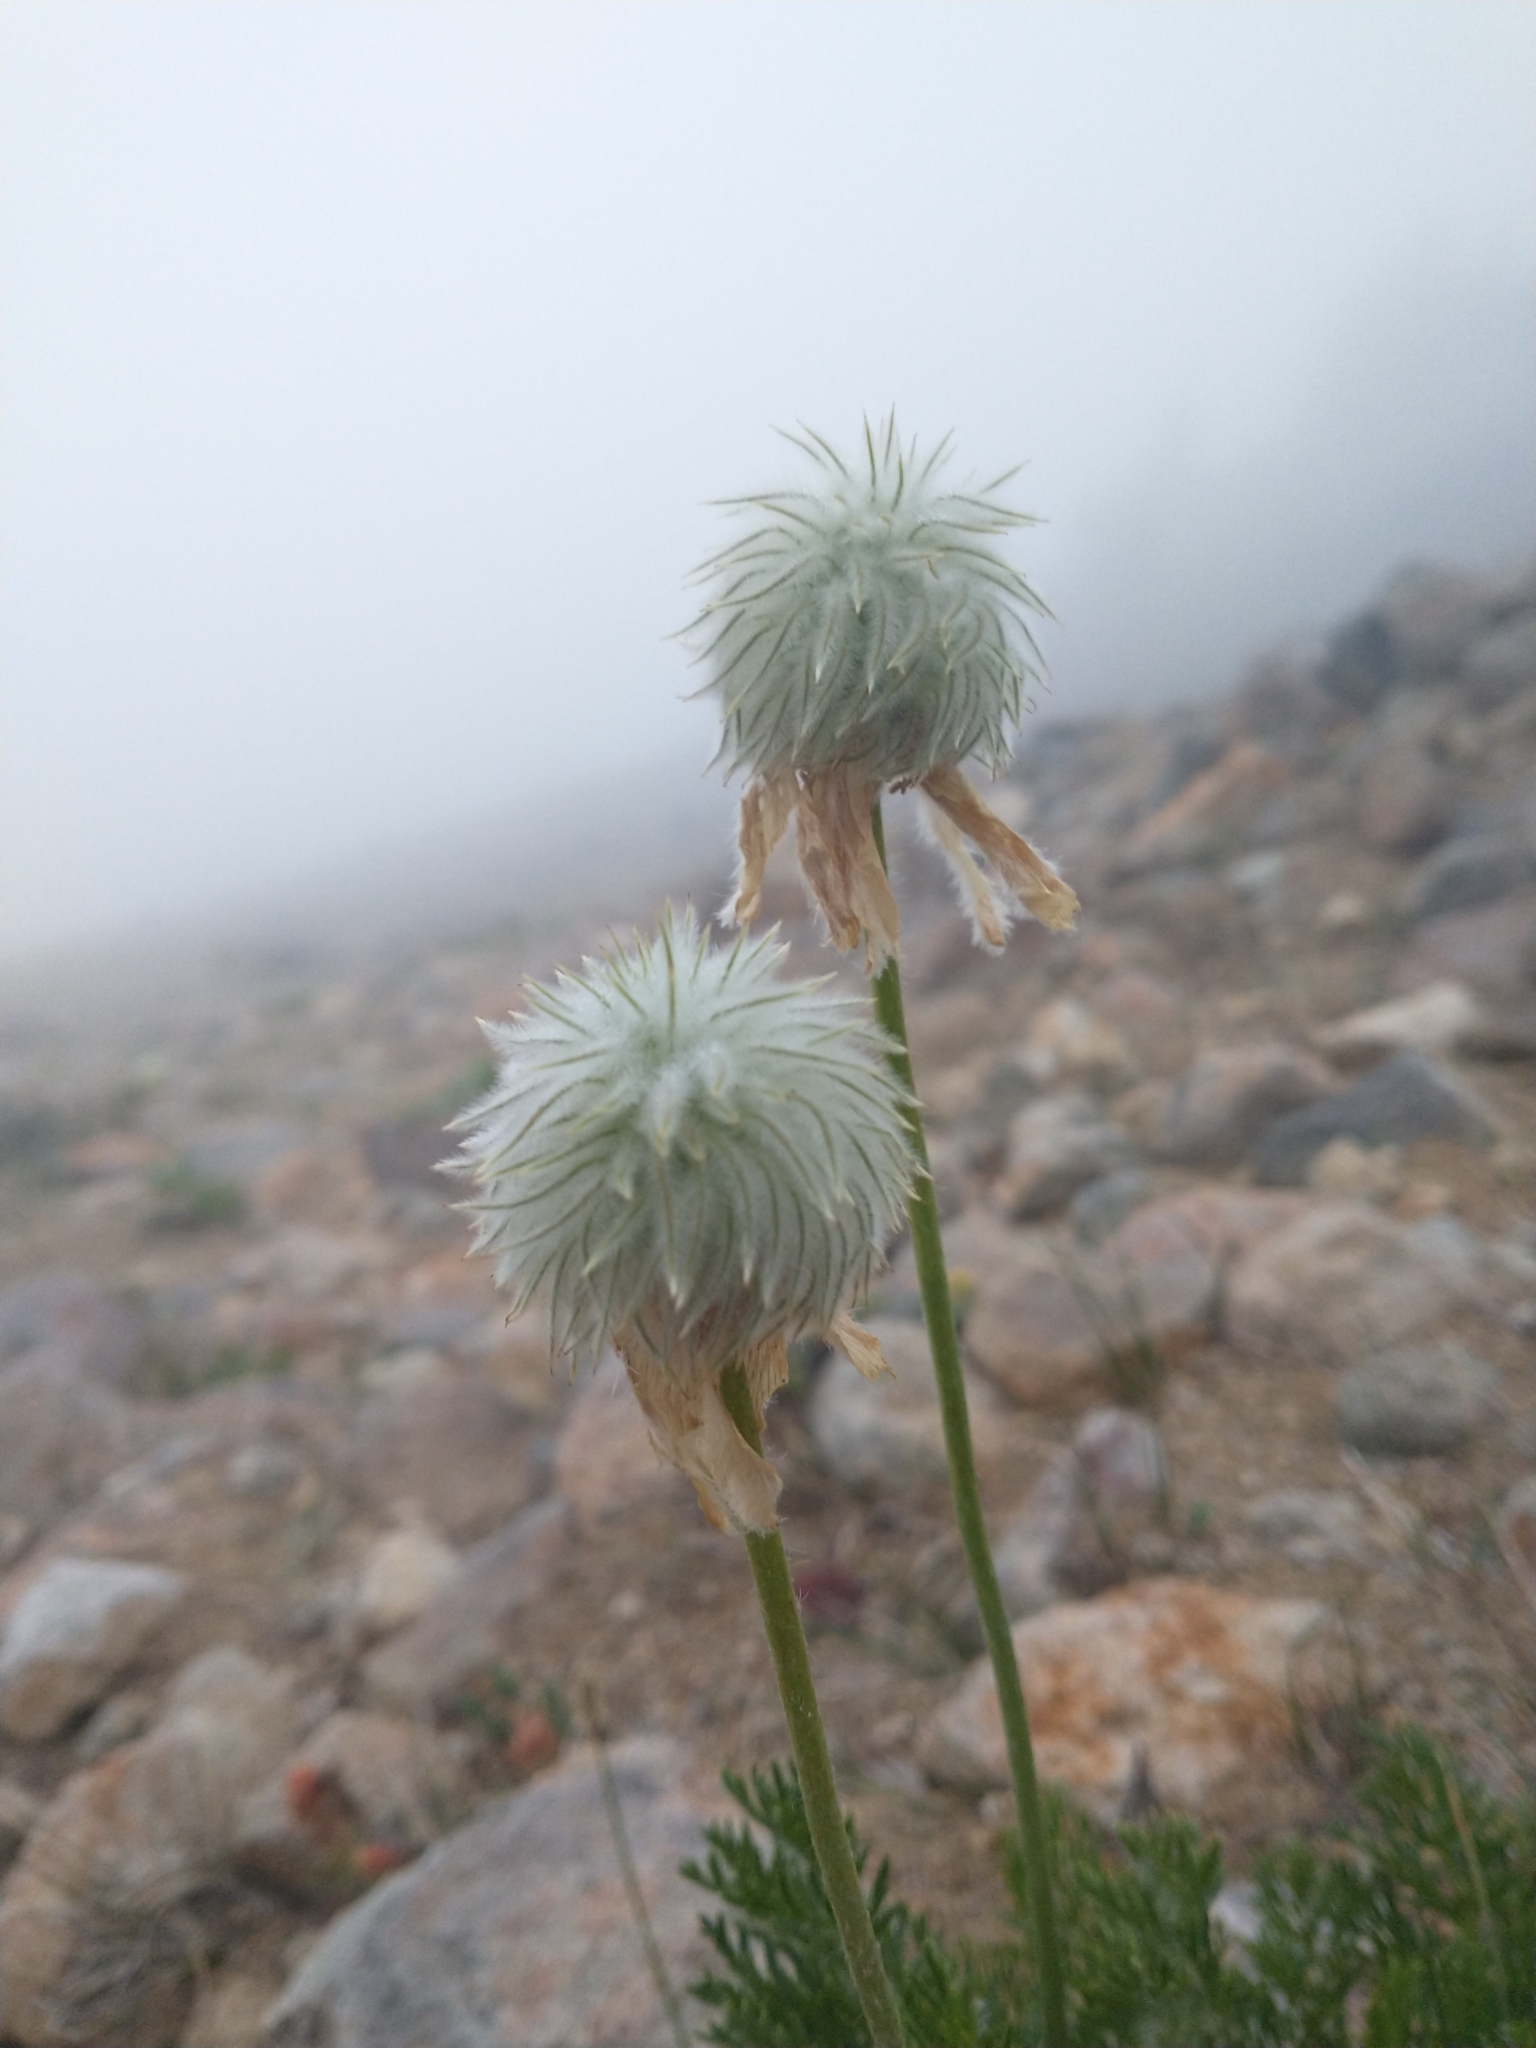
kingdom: Plantae
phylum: Tracheophyta
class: Magnoliopsida
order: Ranunculales
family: Ranunculaceae
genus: Pulsatilla
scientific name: Pulsatilla occidentalis
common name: Mountain pasqueflower
